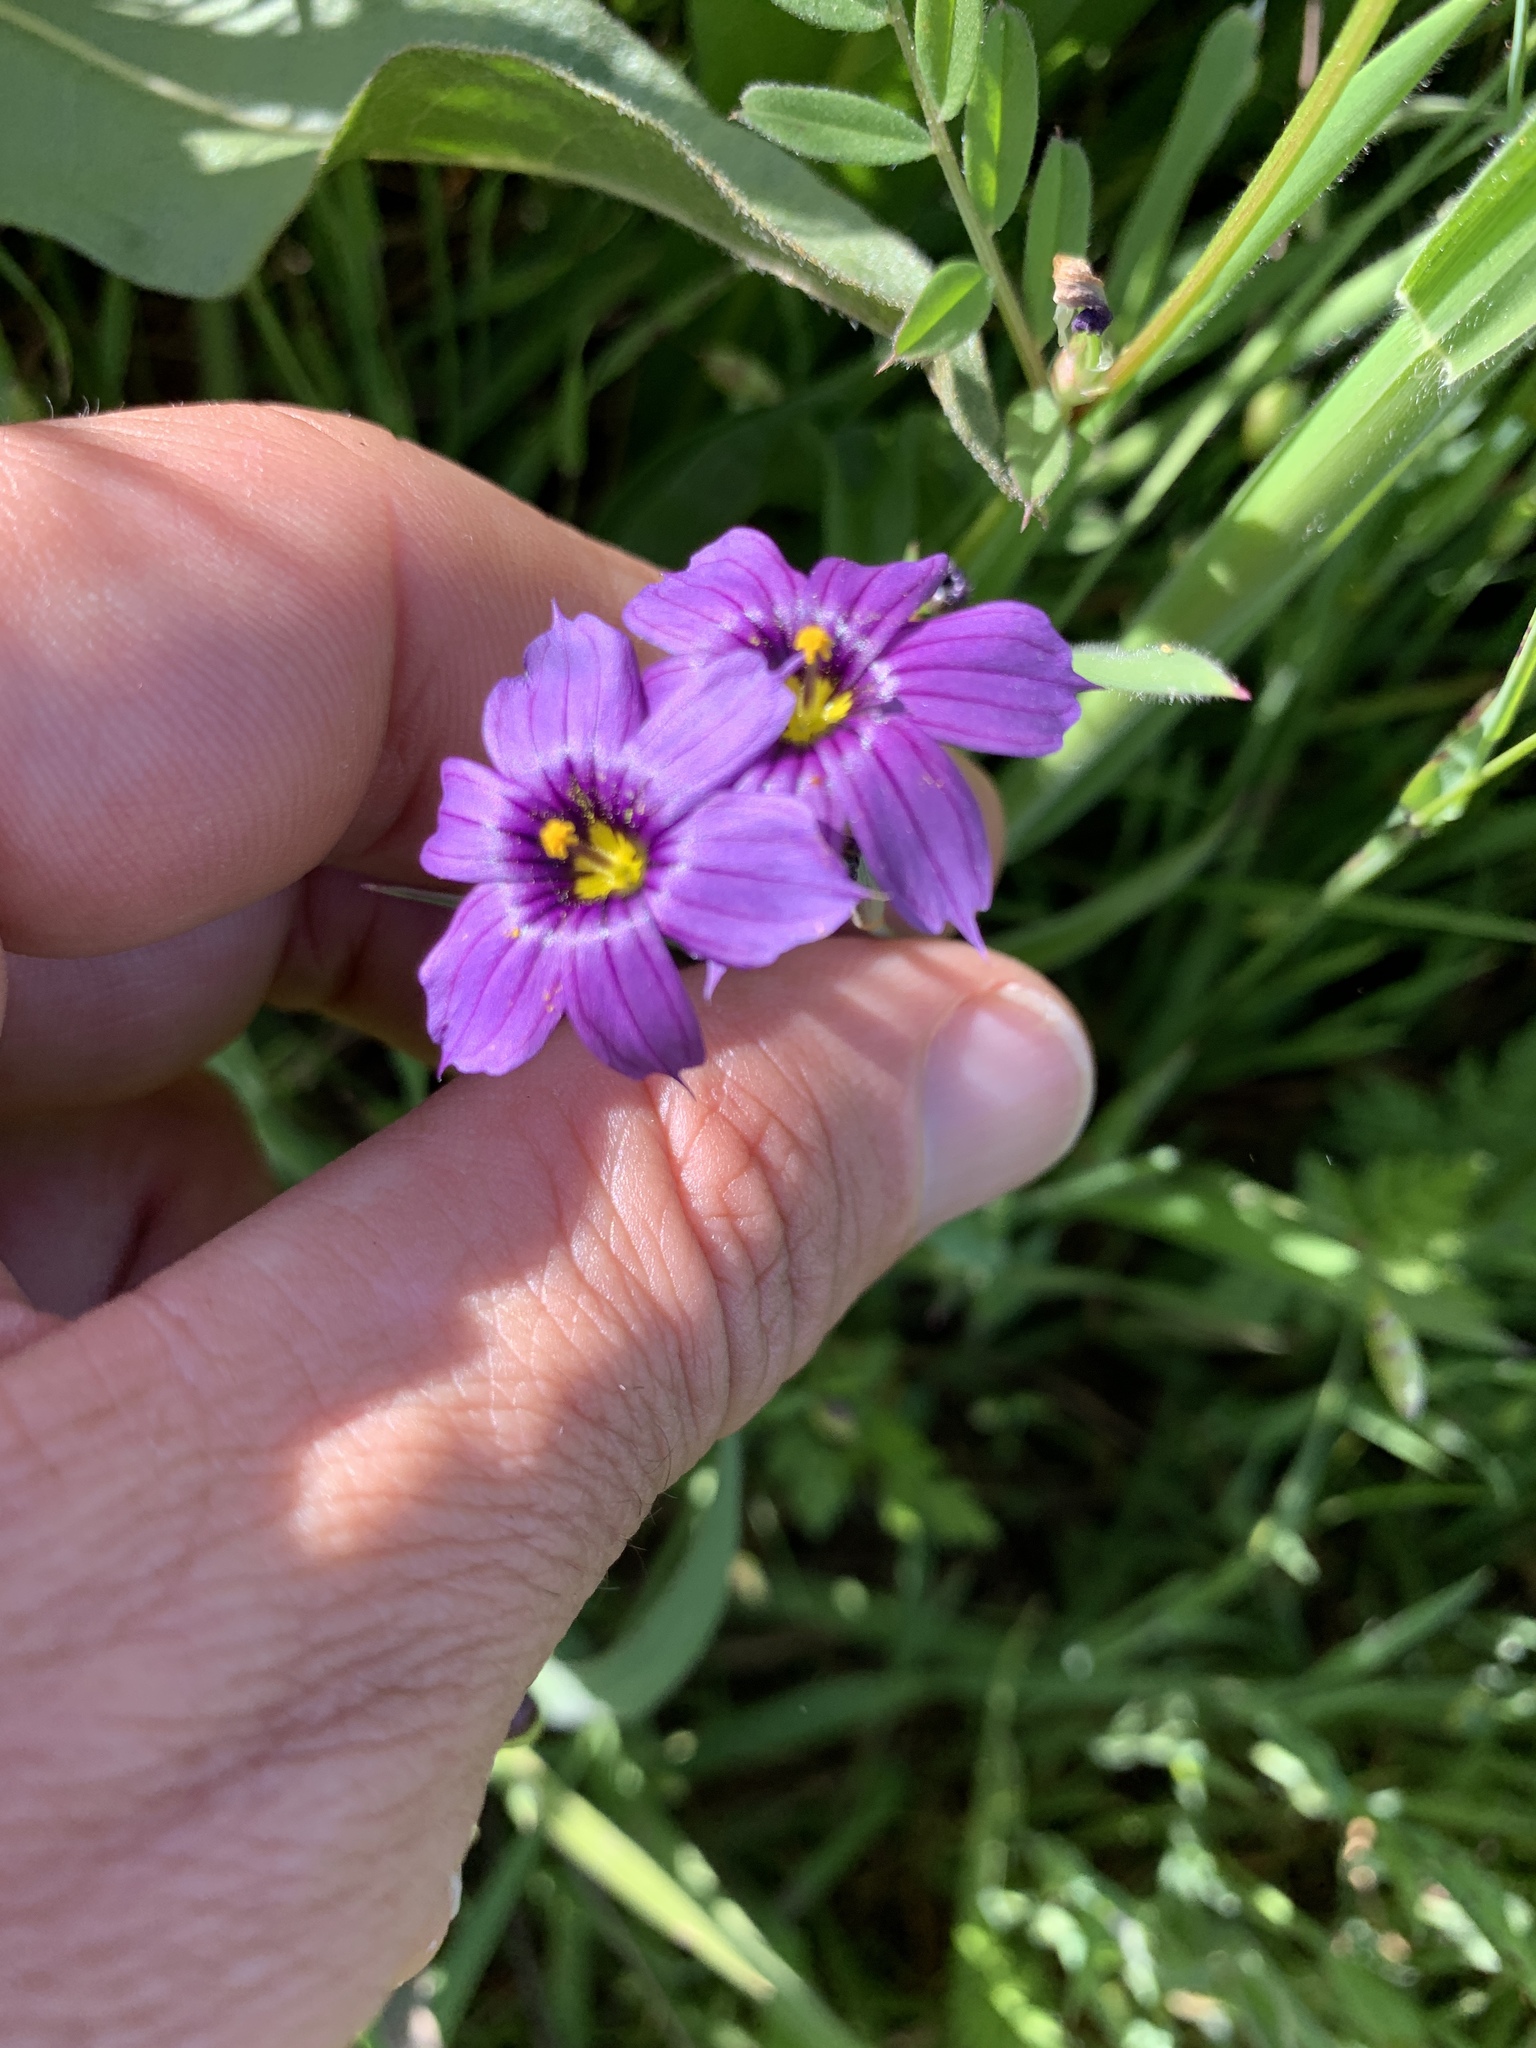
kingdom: Plantae
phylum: Tracheophyta
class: Liliopsida
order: Asparagales
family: Iridaceae
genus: Sisyrinchium
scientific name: Sisyrinchium bellum
